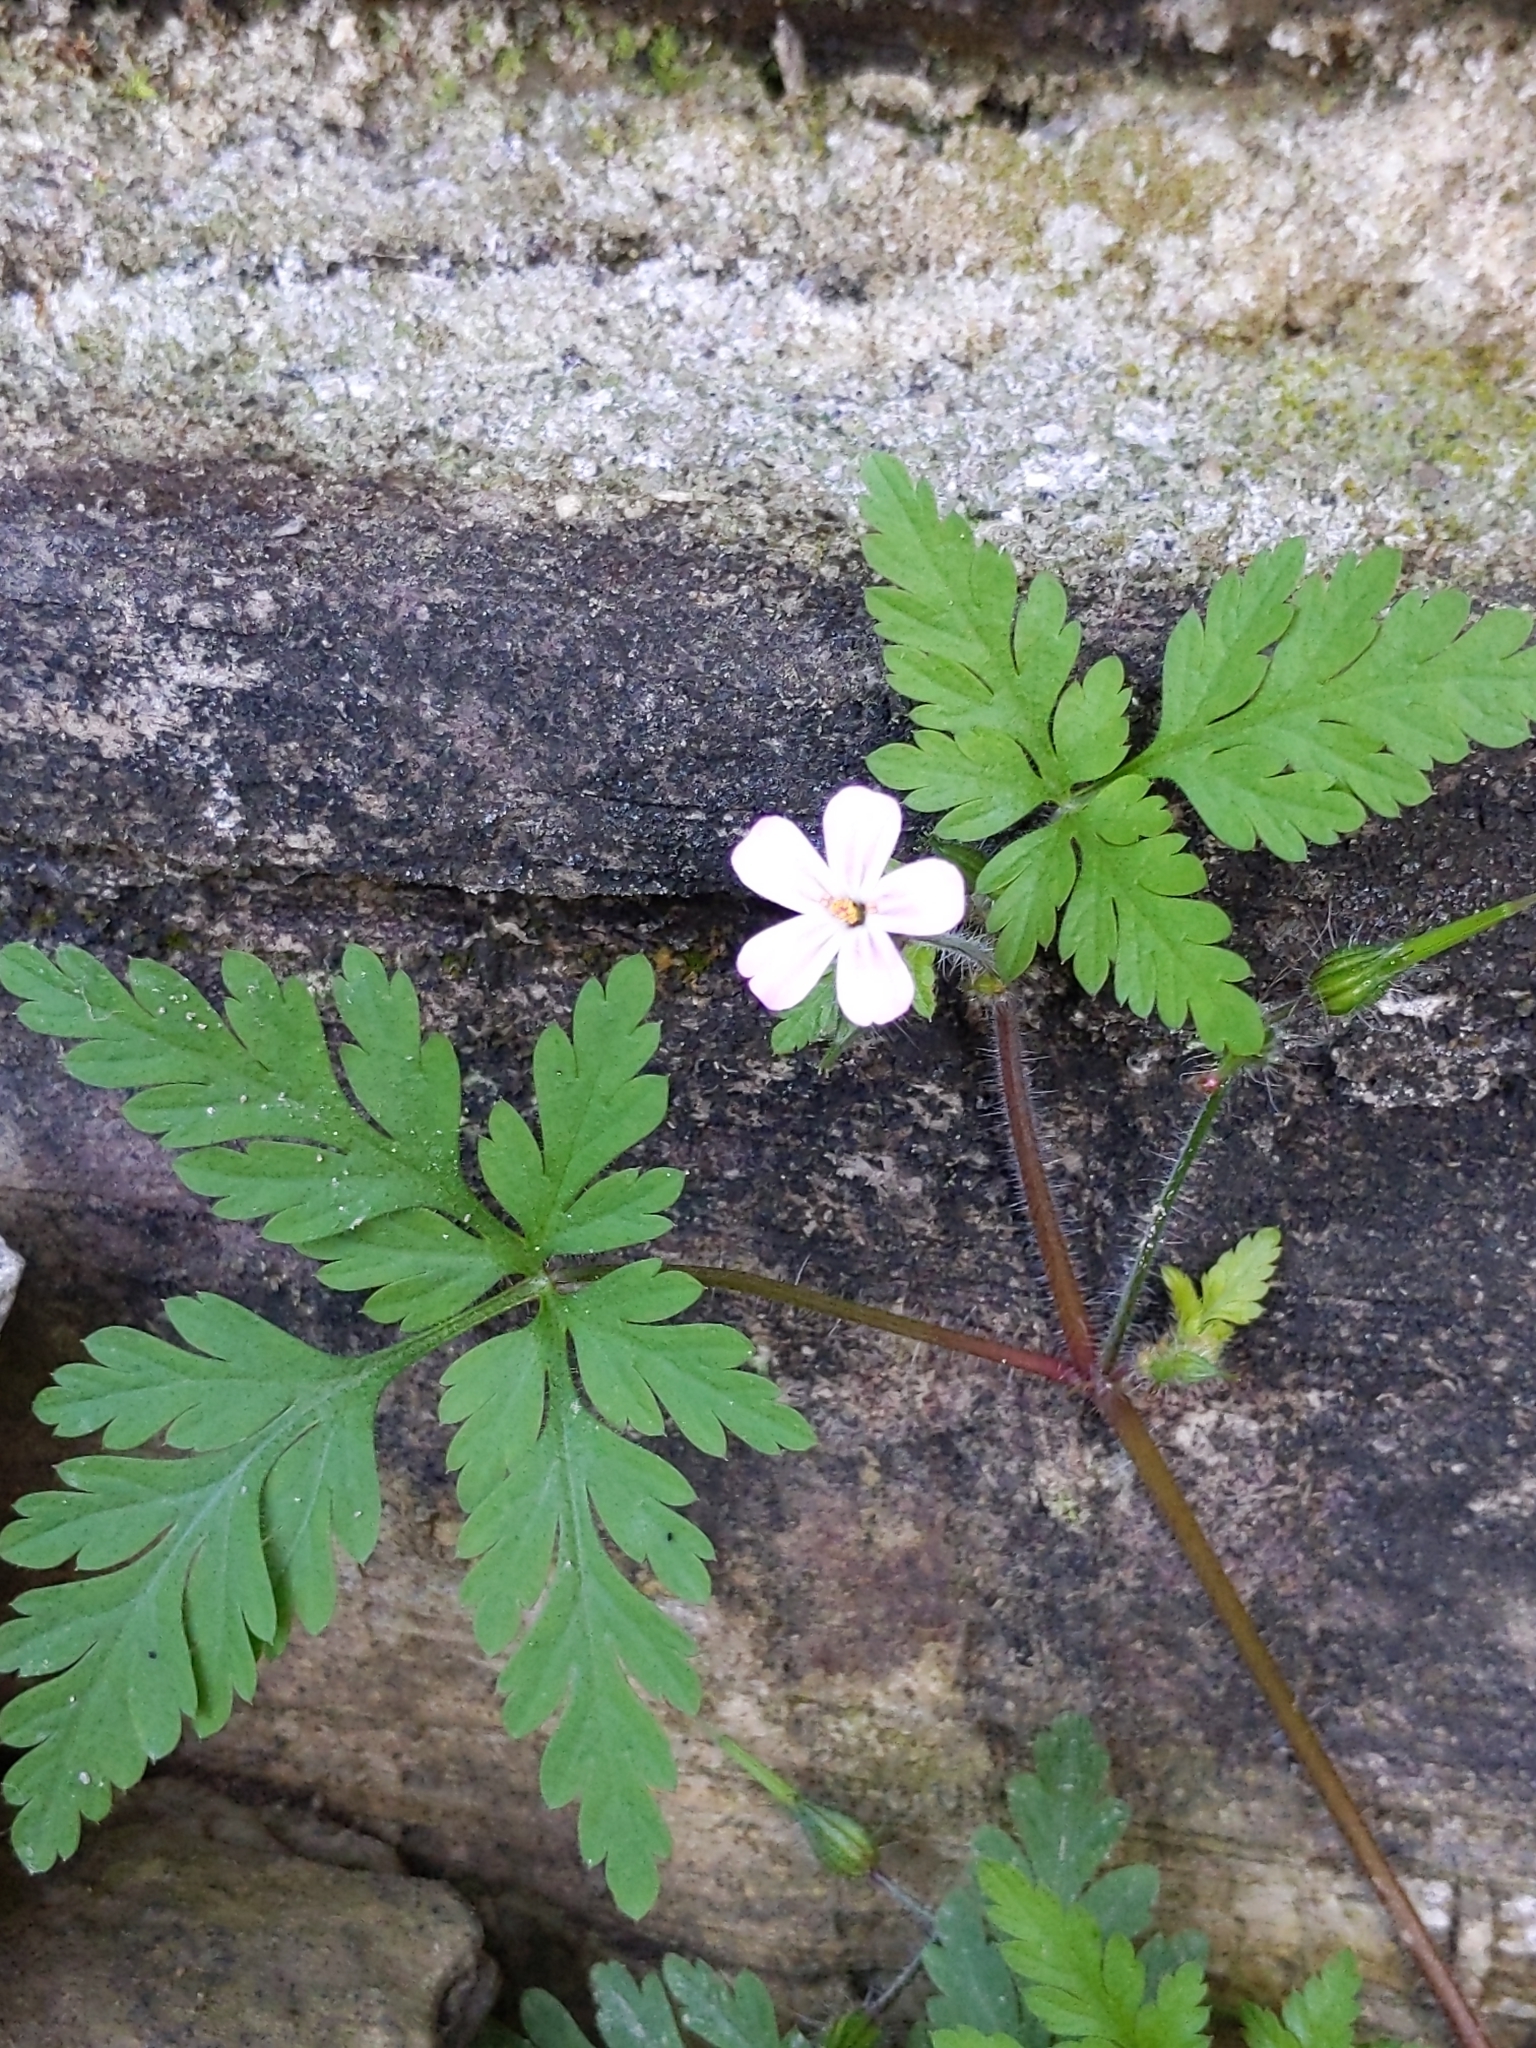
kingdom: Plantae
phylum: Tracheophyta
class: Magnoliopsida
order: Geraniales
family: Geraniaceae
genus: Geranium
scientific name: Geranium robertianum
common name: Herb-robert
